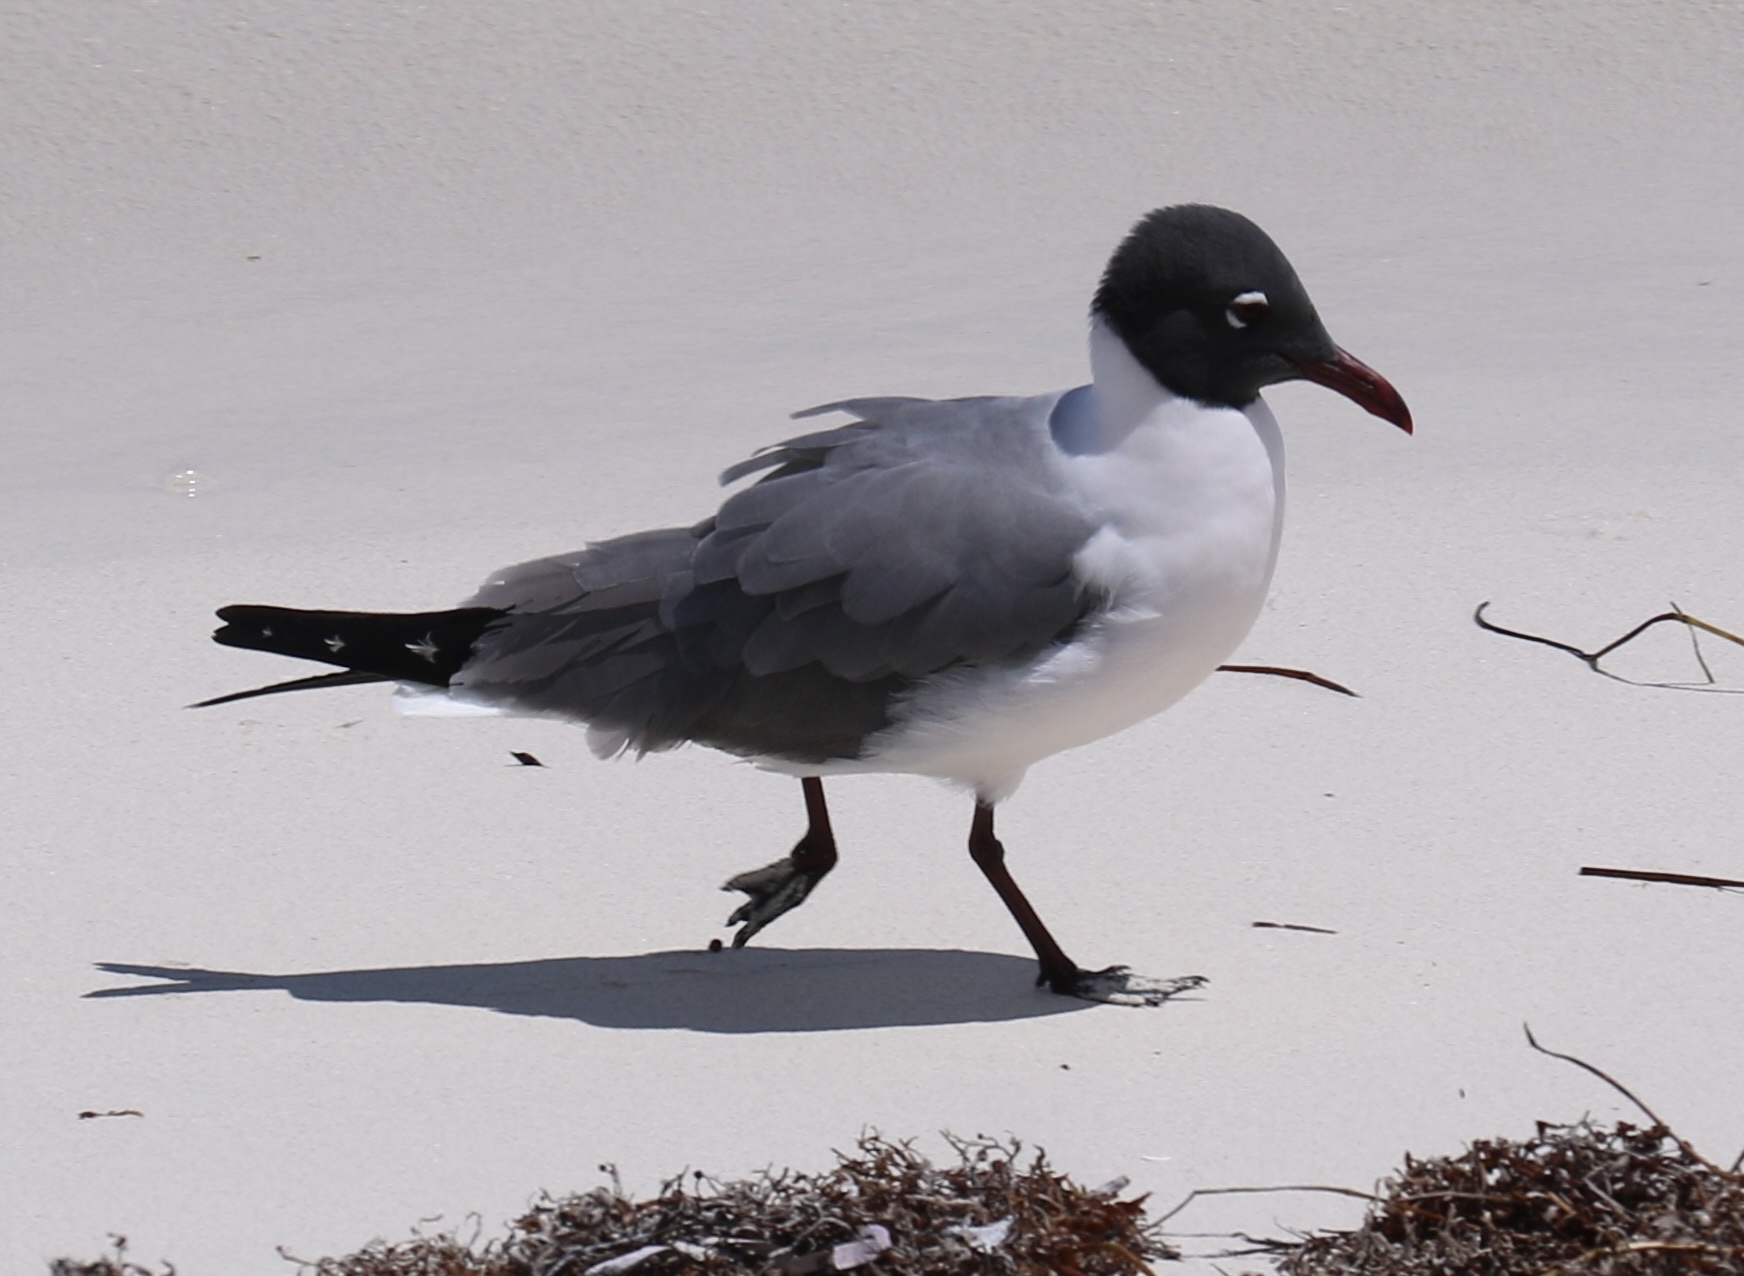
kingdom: Animalia
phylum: Chordata
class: Aves
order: Charadriiformes
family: Laridae
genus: Leucophaeus
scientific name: Leucophaeus atricilla
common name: Laughing gull
